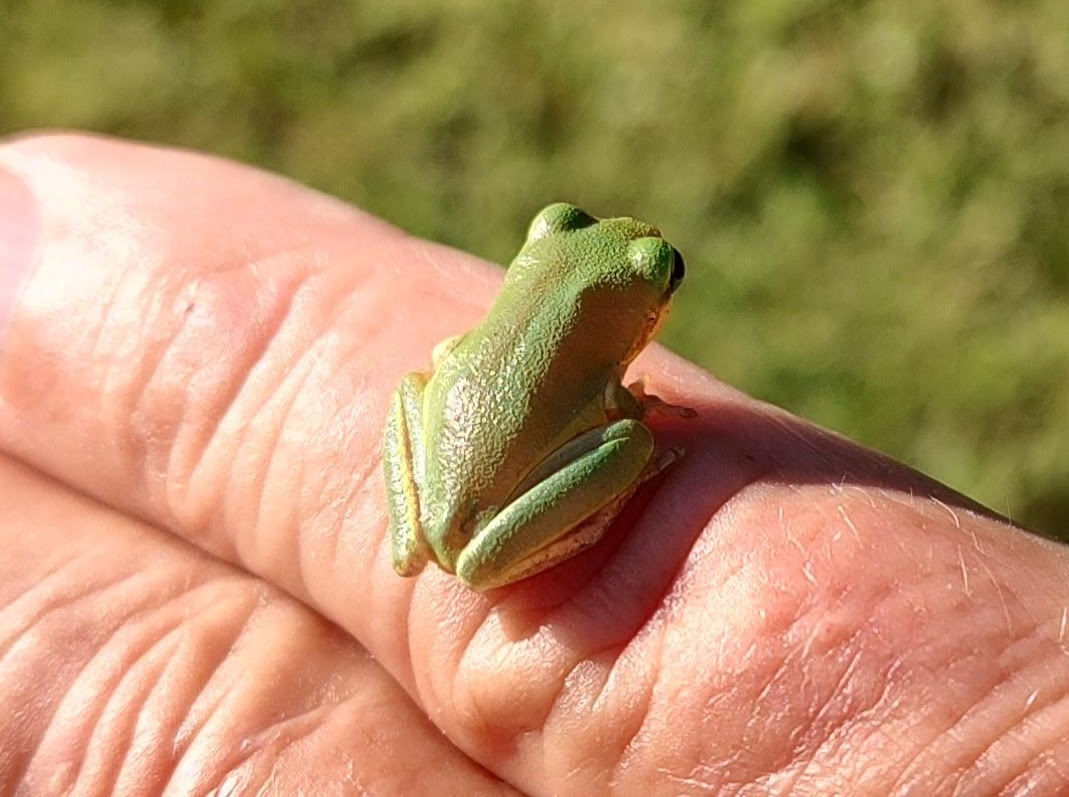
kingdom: Animalia
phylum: Chordata
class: Amphibia
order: Anura
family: Hylidae
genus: Dryophytes
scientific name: Dryophytes squirellus
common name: Squirrel treefrog
